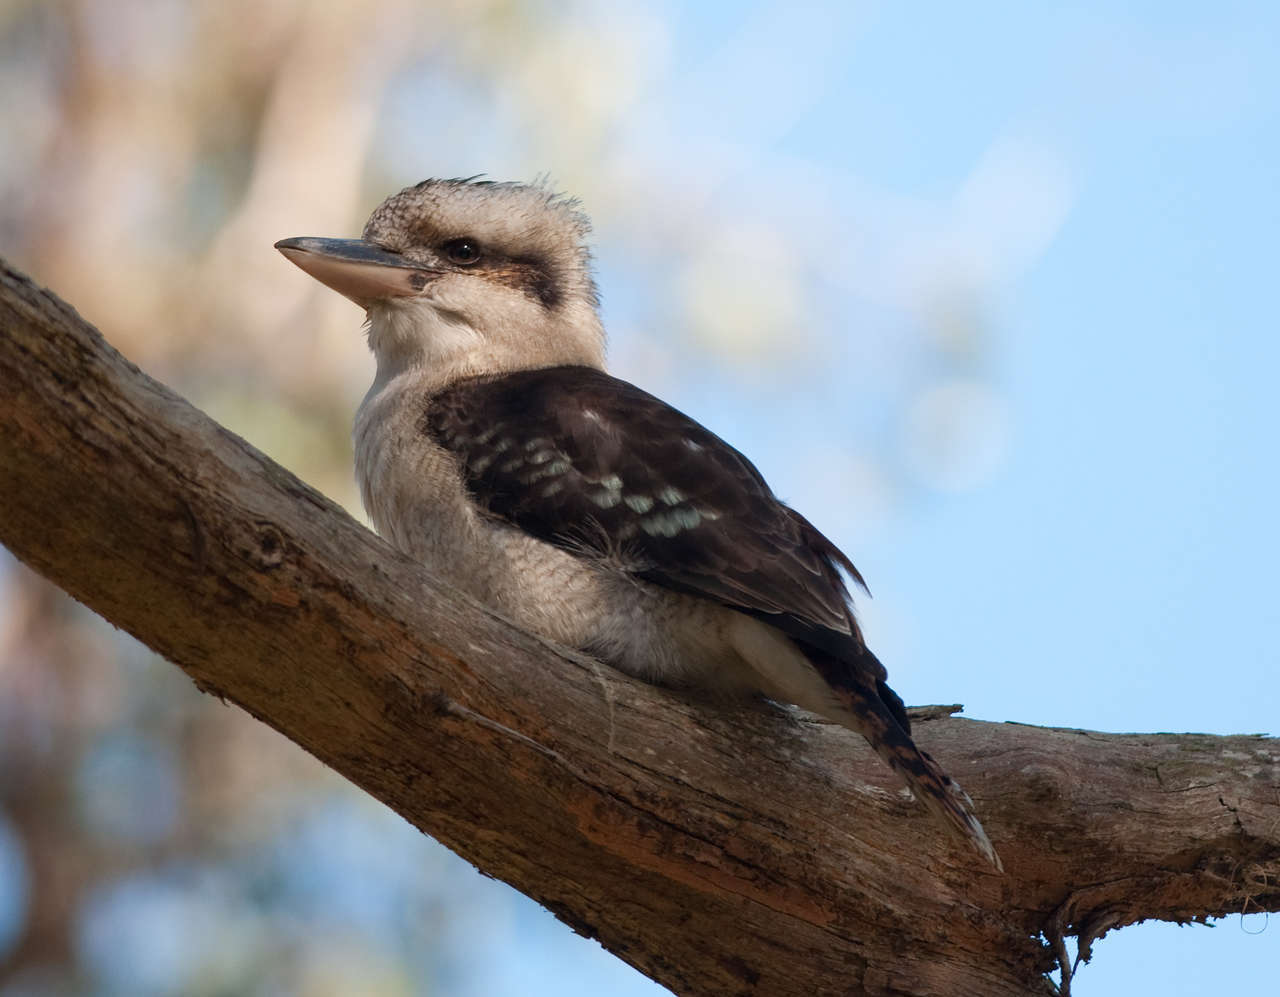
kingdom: Animalia
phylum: Chordata
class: Aves
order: Coraciiformes
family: Alcedinidae
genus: Dacelo
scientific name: Dacelo novaeguineae
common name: Laughing kookaburra
